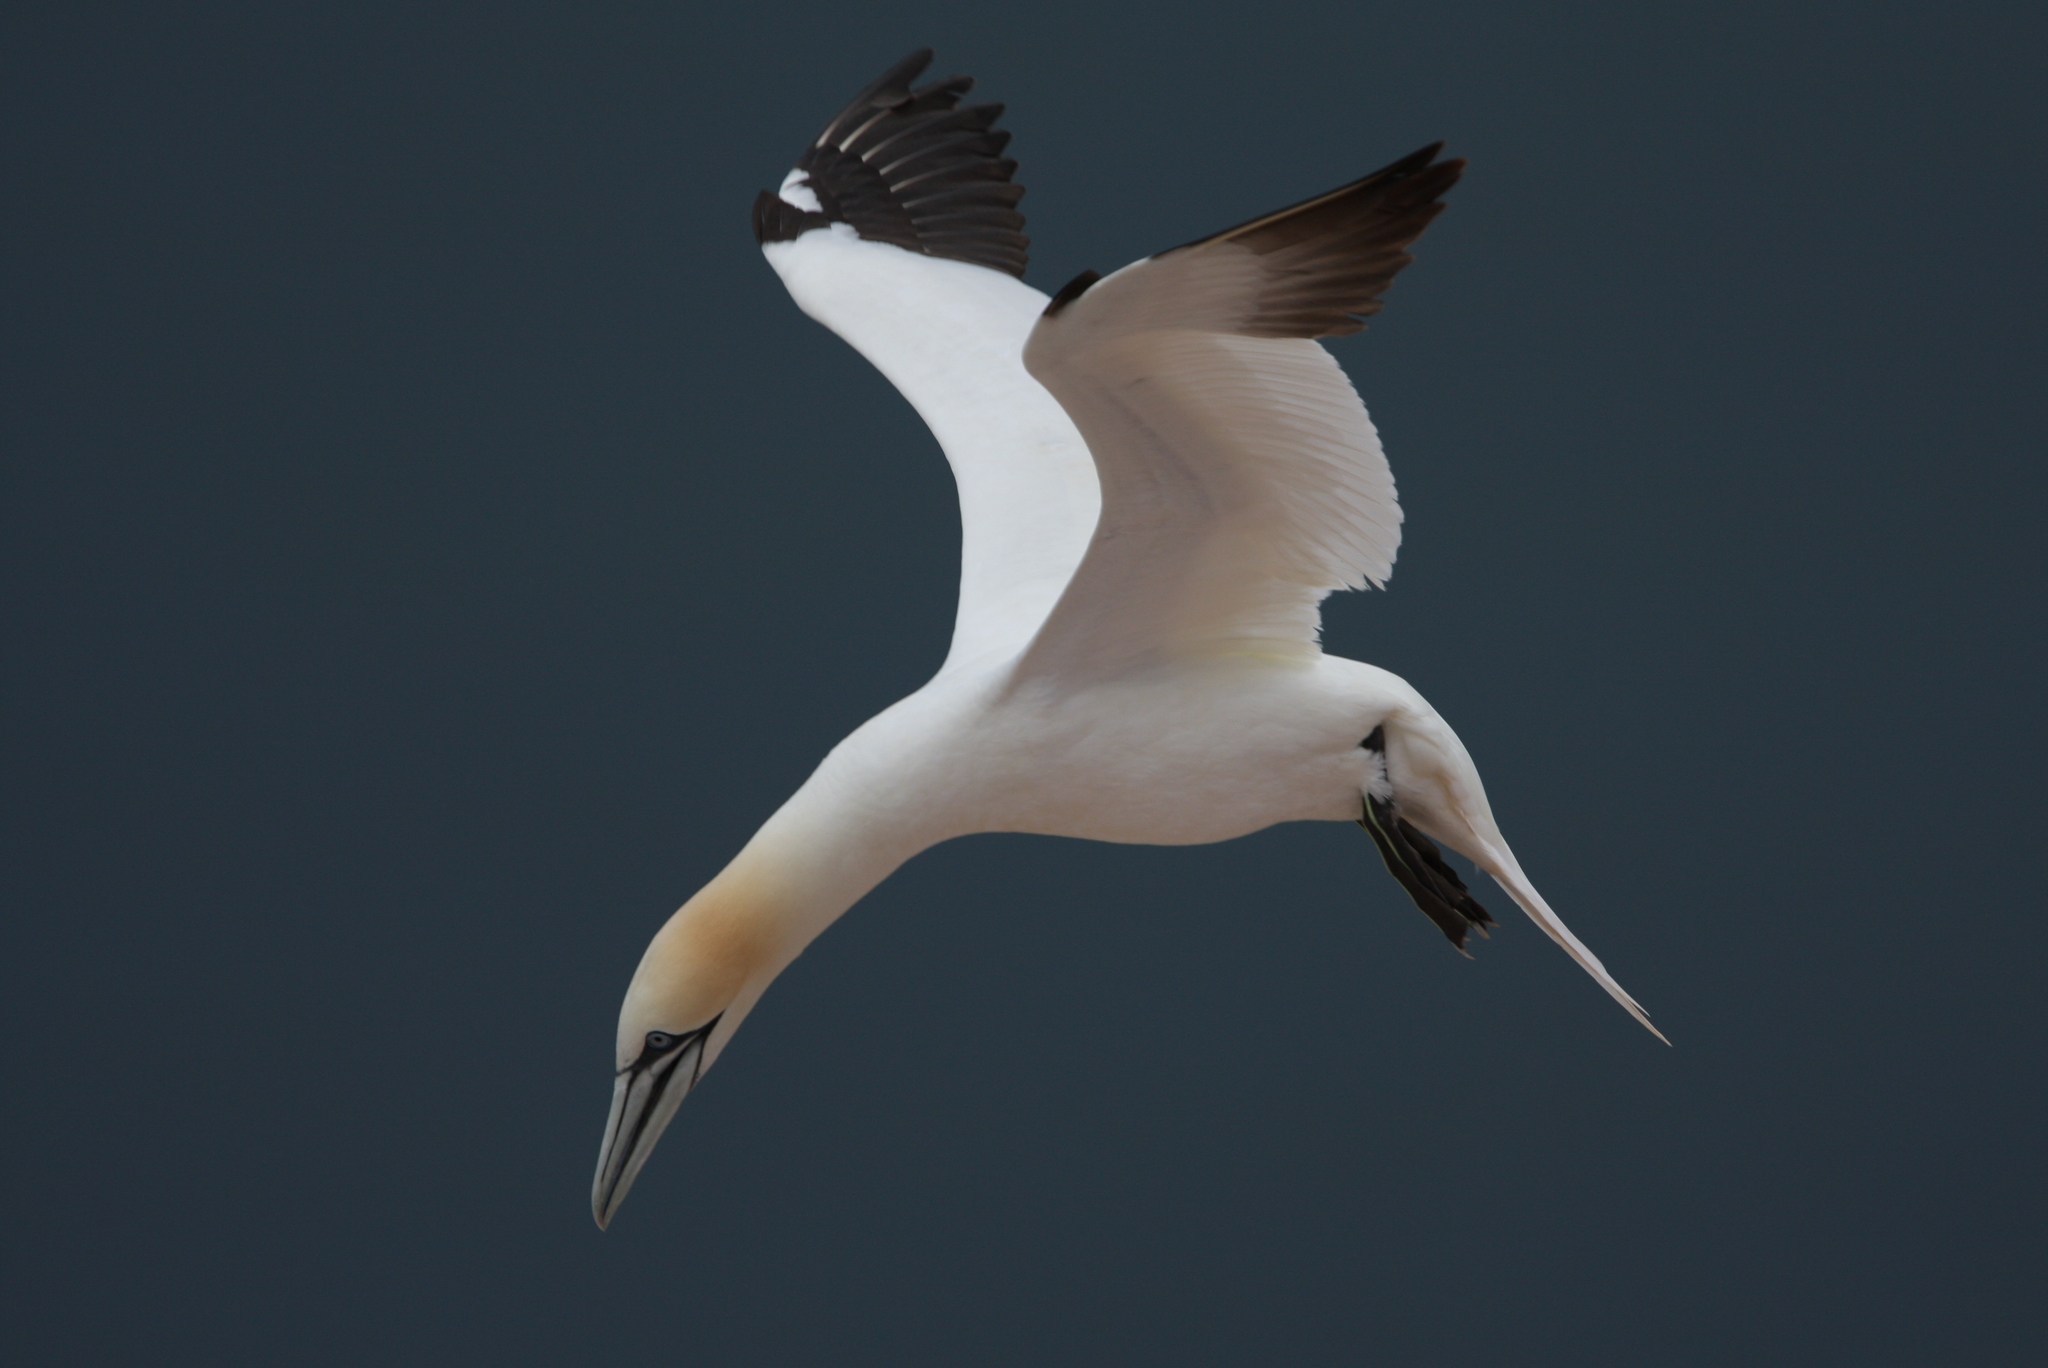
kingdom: Animalia
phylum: Chordata
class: Aves
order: Suliformes
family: Sulidae
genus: Morus
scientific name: Morus bassanus
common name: Northern gannet
